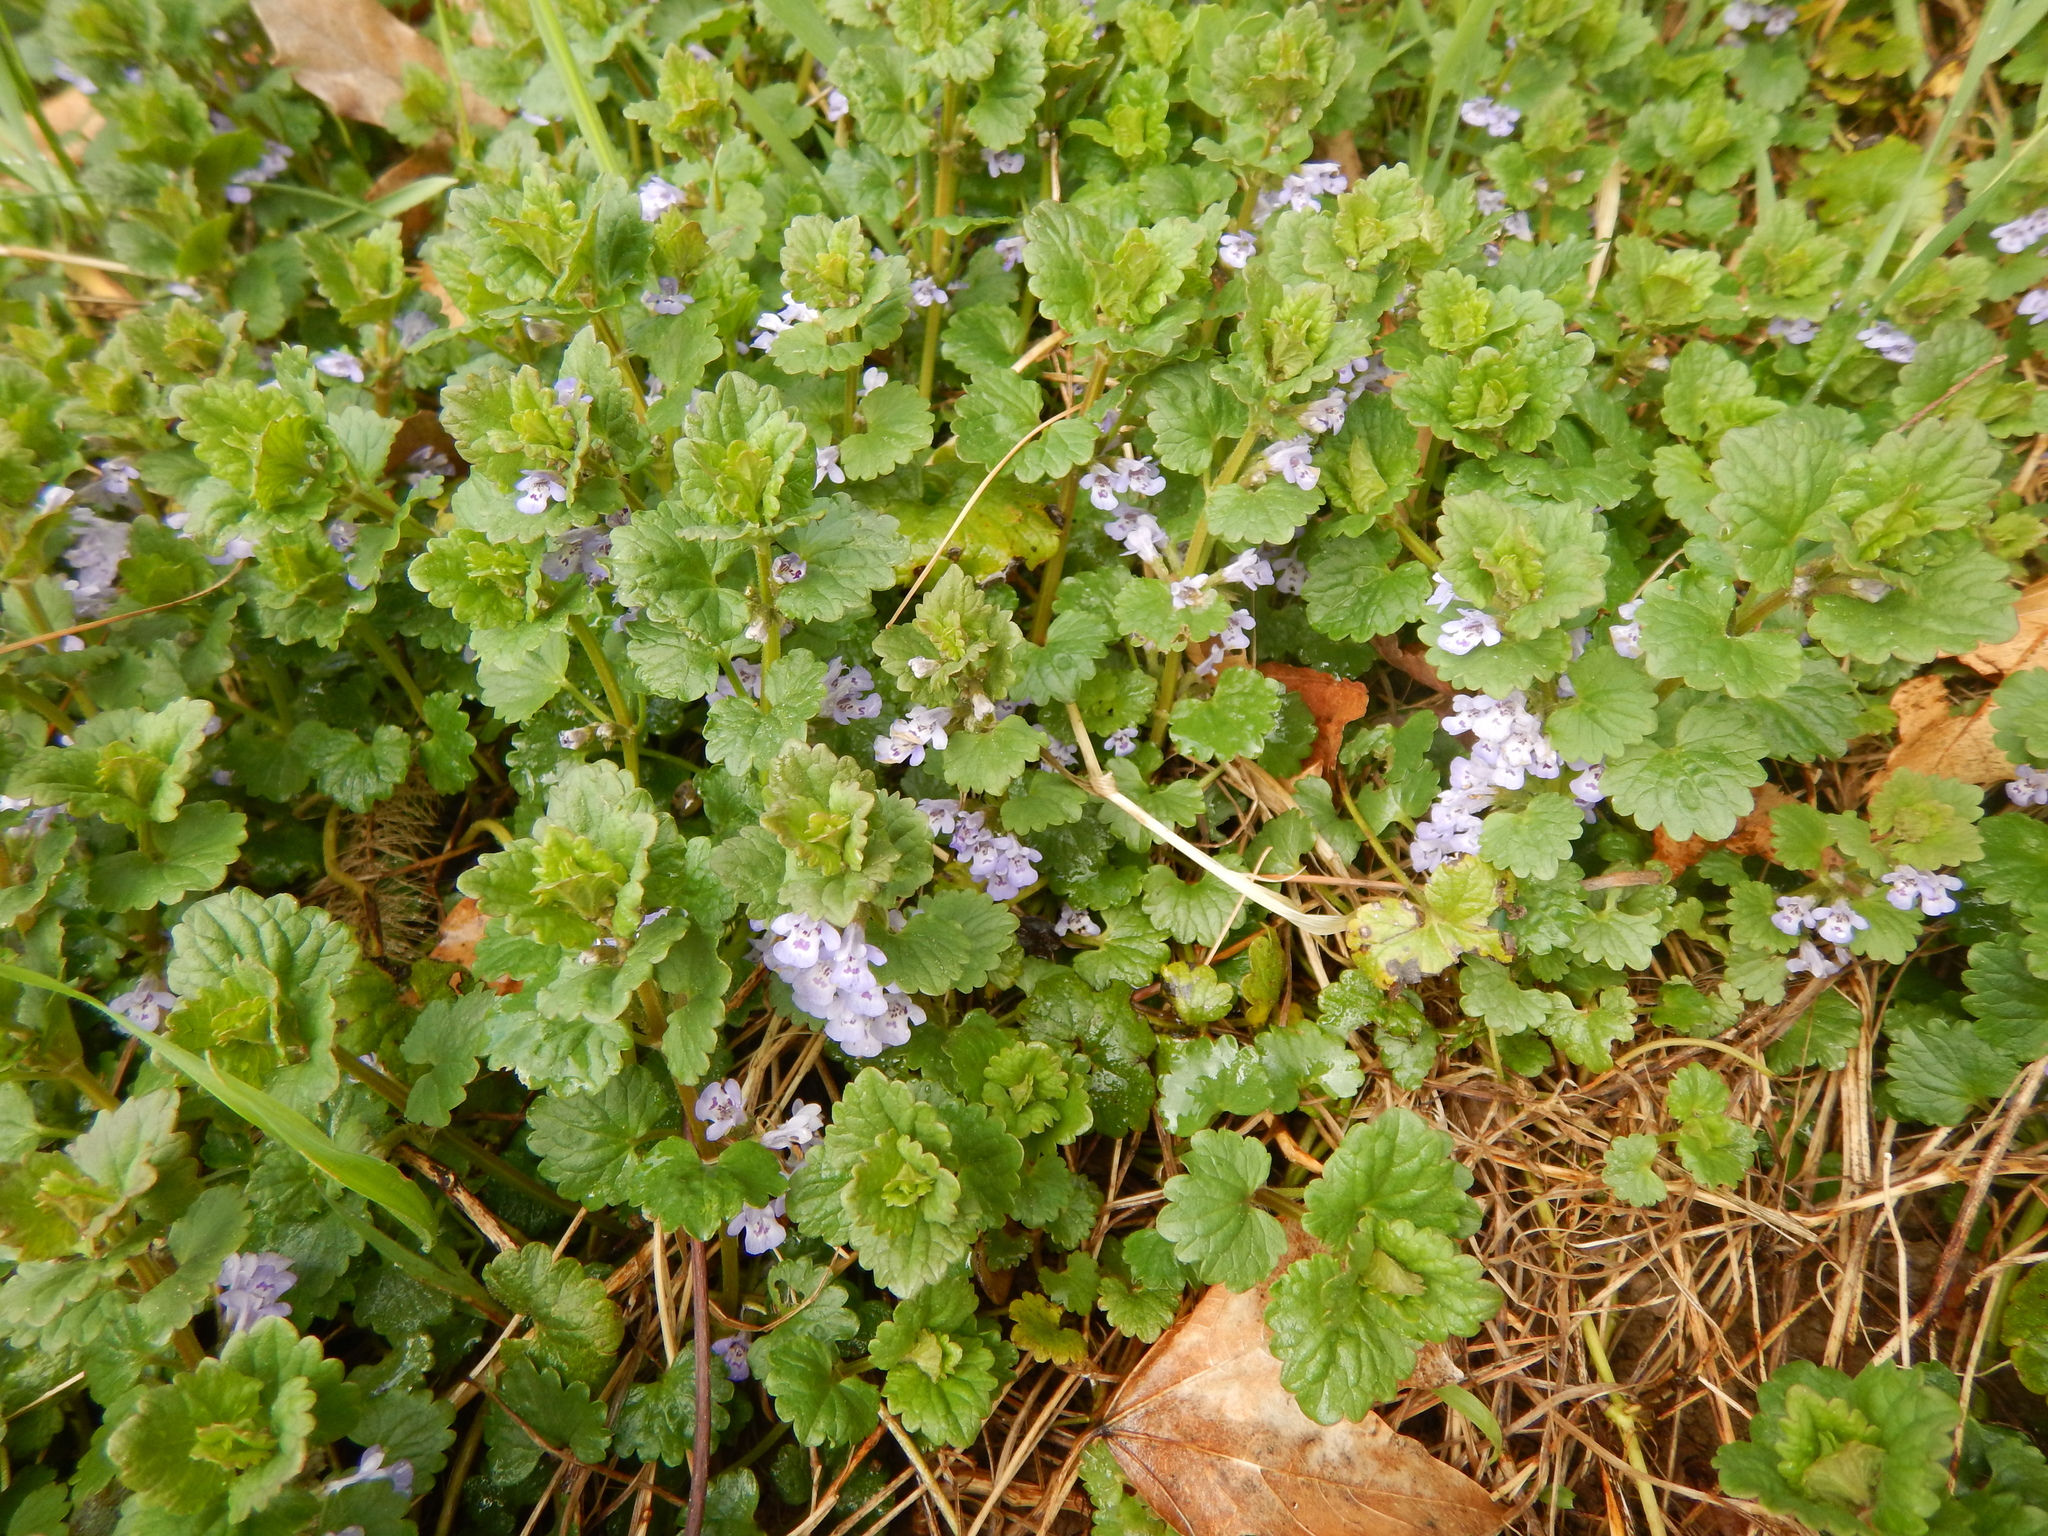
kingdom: Plantae
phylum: Tracheophyta
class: Magnoliopsida
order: Lamiales
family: Lamiaceae
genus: Glechoma
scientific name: Glechoma hederacea
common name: Ground ivy
